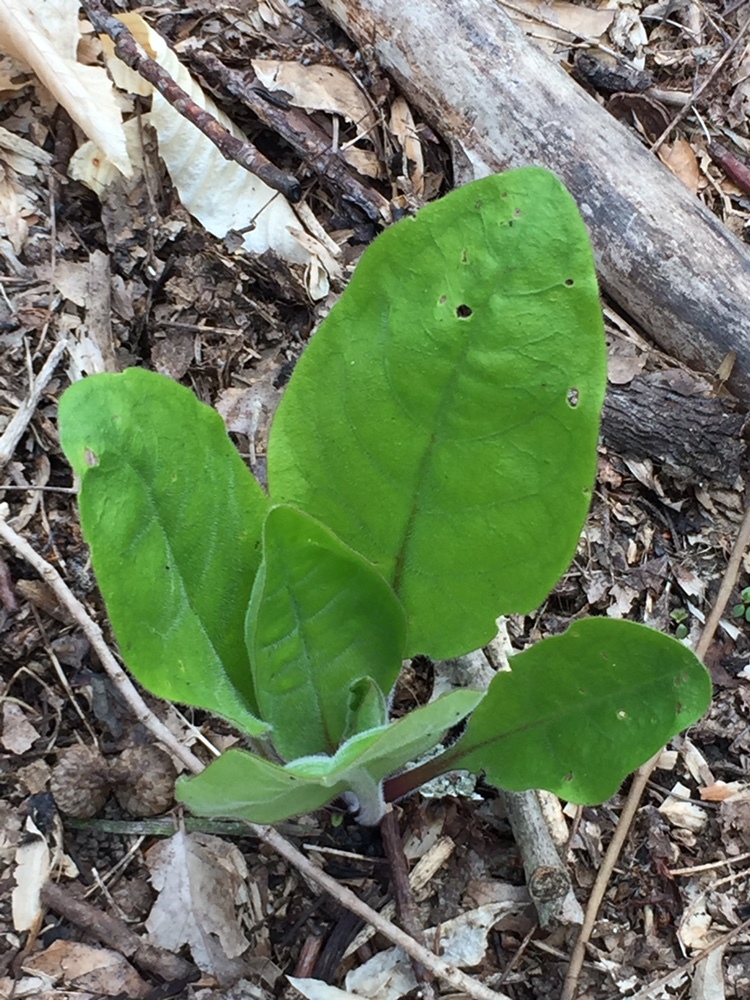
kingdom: Plantae
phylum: Tracheophyta
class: Magnoliopsida
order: Boraginales
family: Boraginaceae
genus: Andersonglossum
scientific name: Andersonglossum virginianum
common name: Wild comfrey
